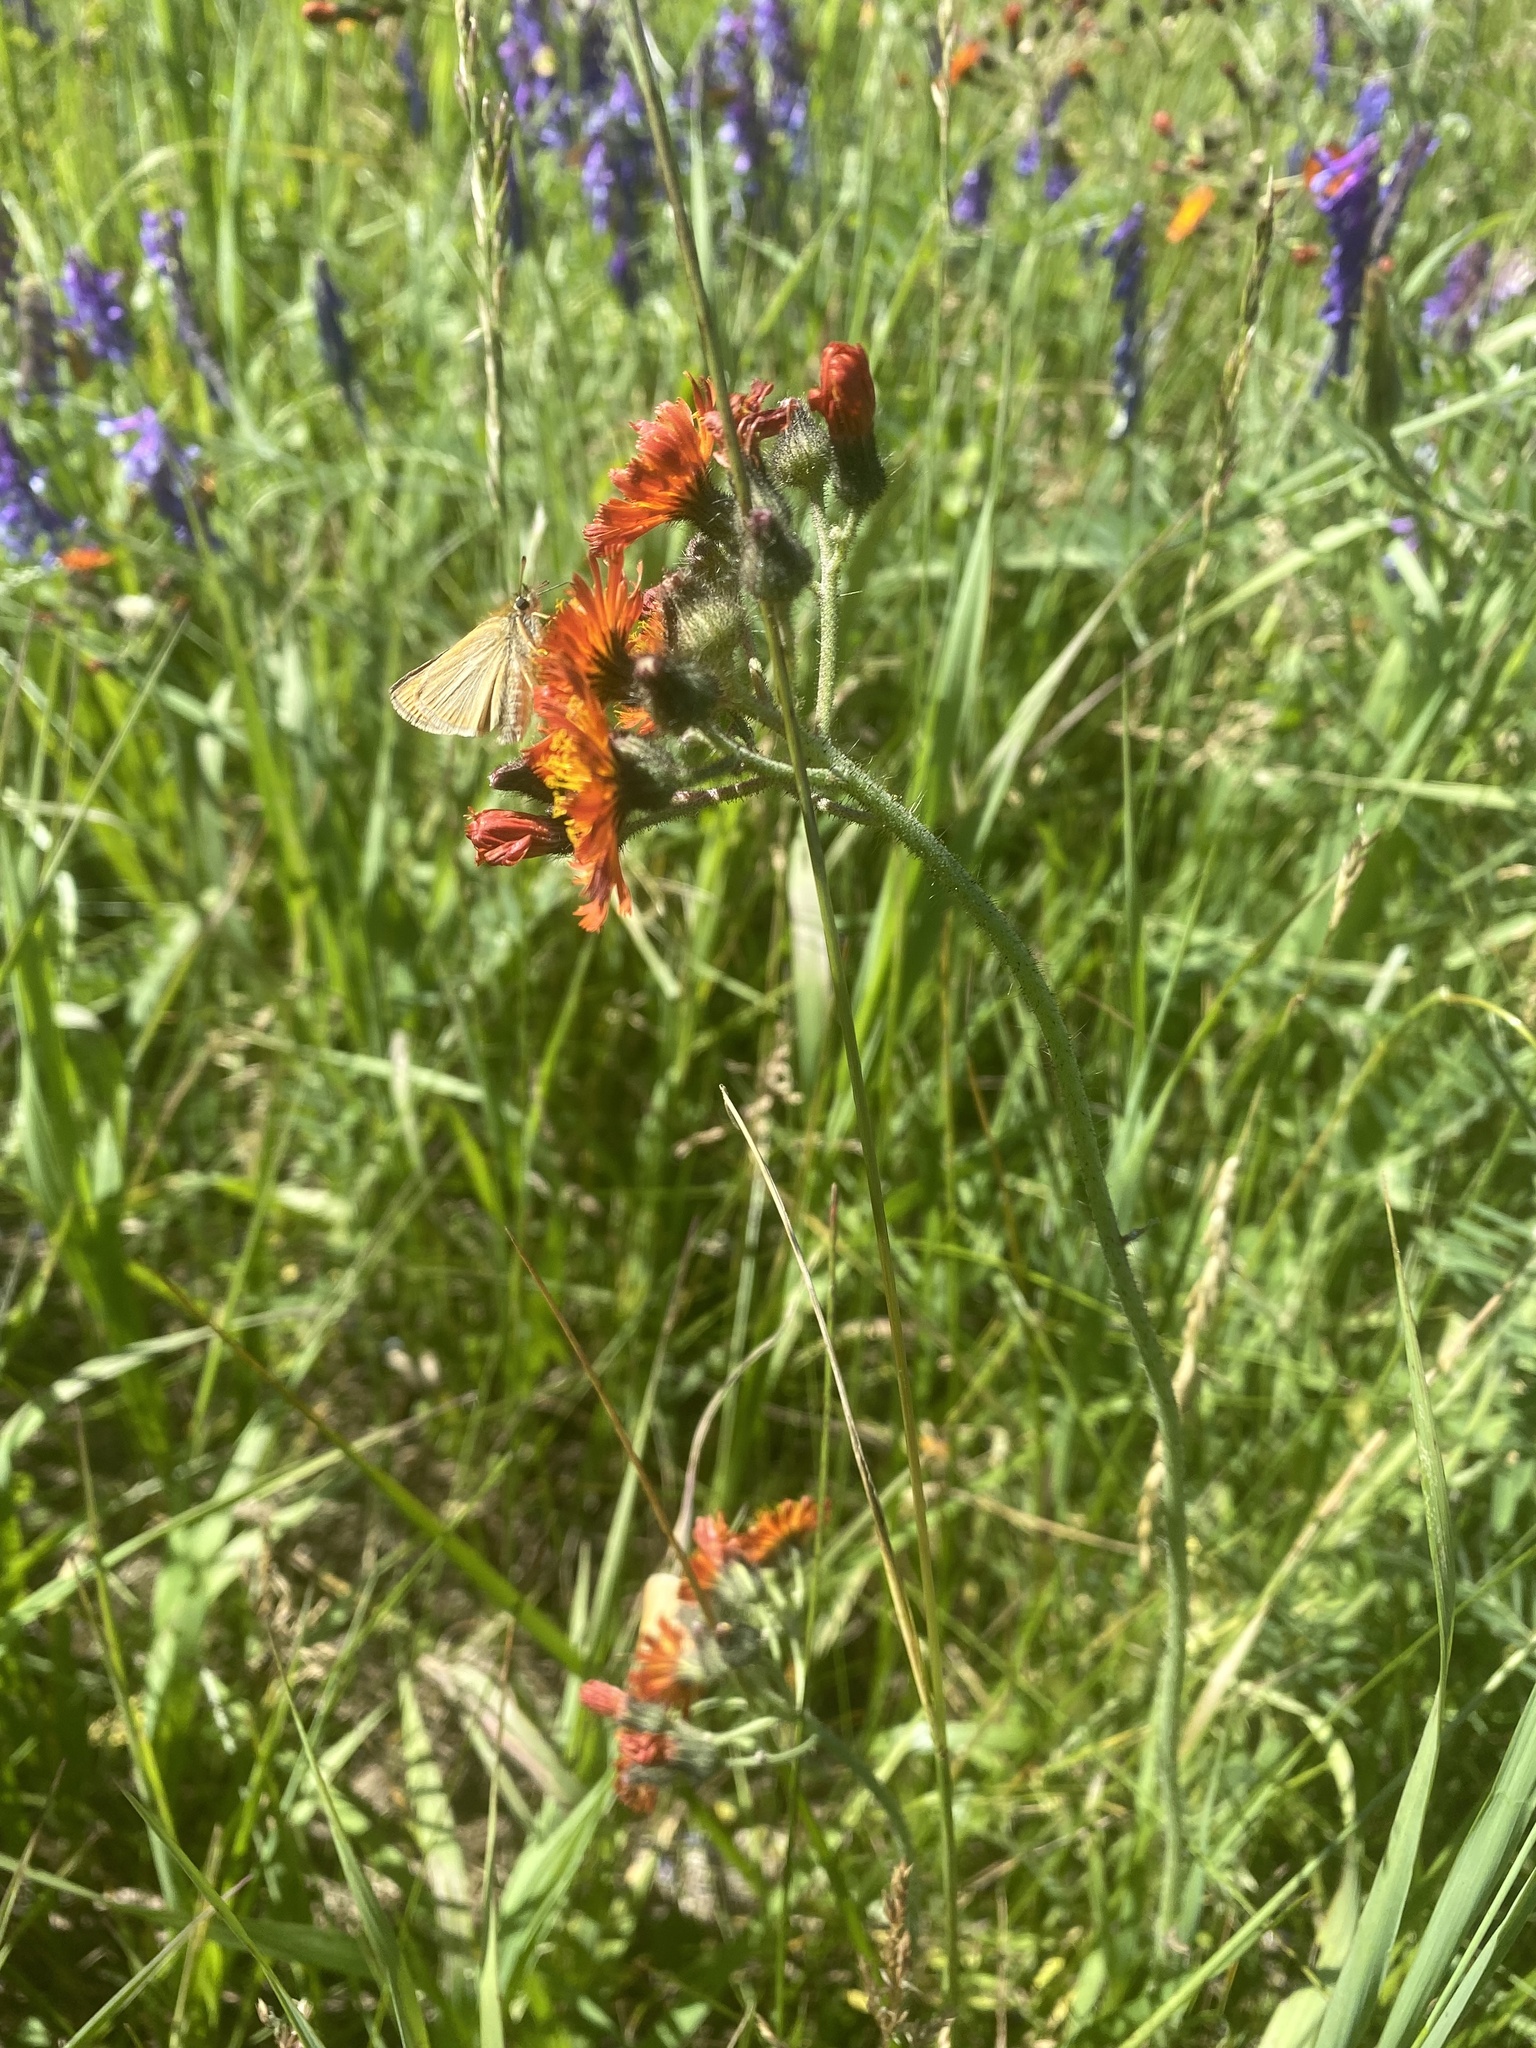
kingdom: Plantae
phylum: Tracheophyta
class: Magnoliopsida
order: Asterales
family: Asteraceae
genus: Pilosella
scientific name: Pilosella aurantiaca
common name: Fox-and-cubs
